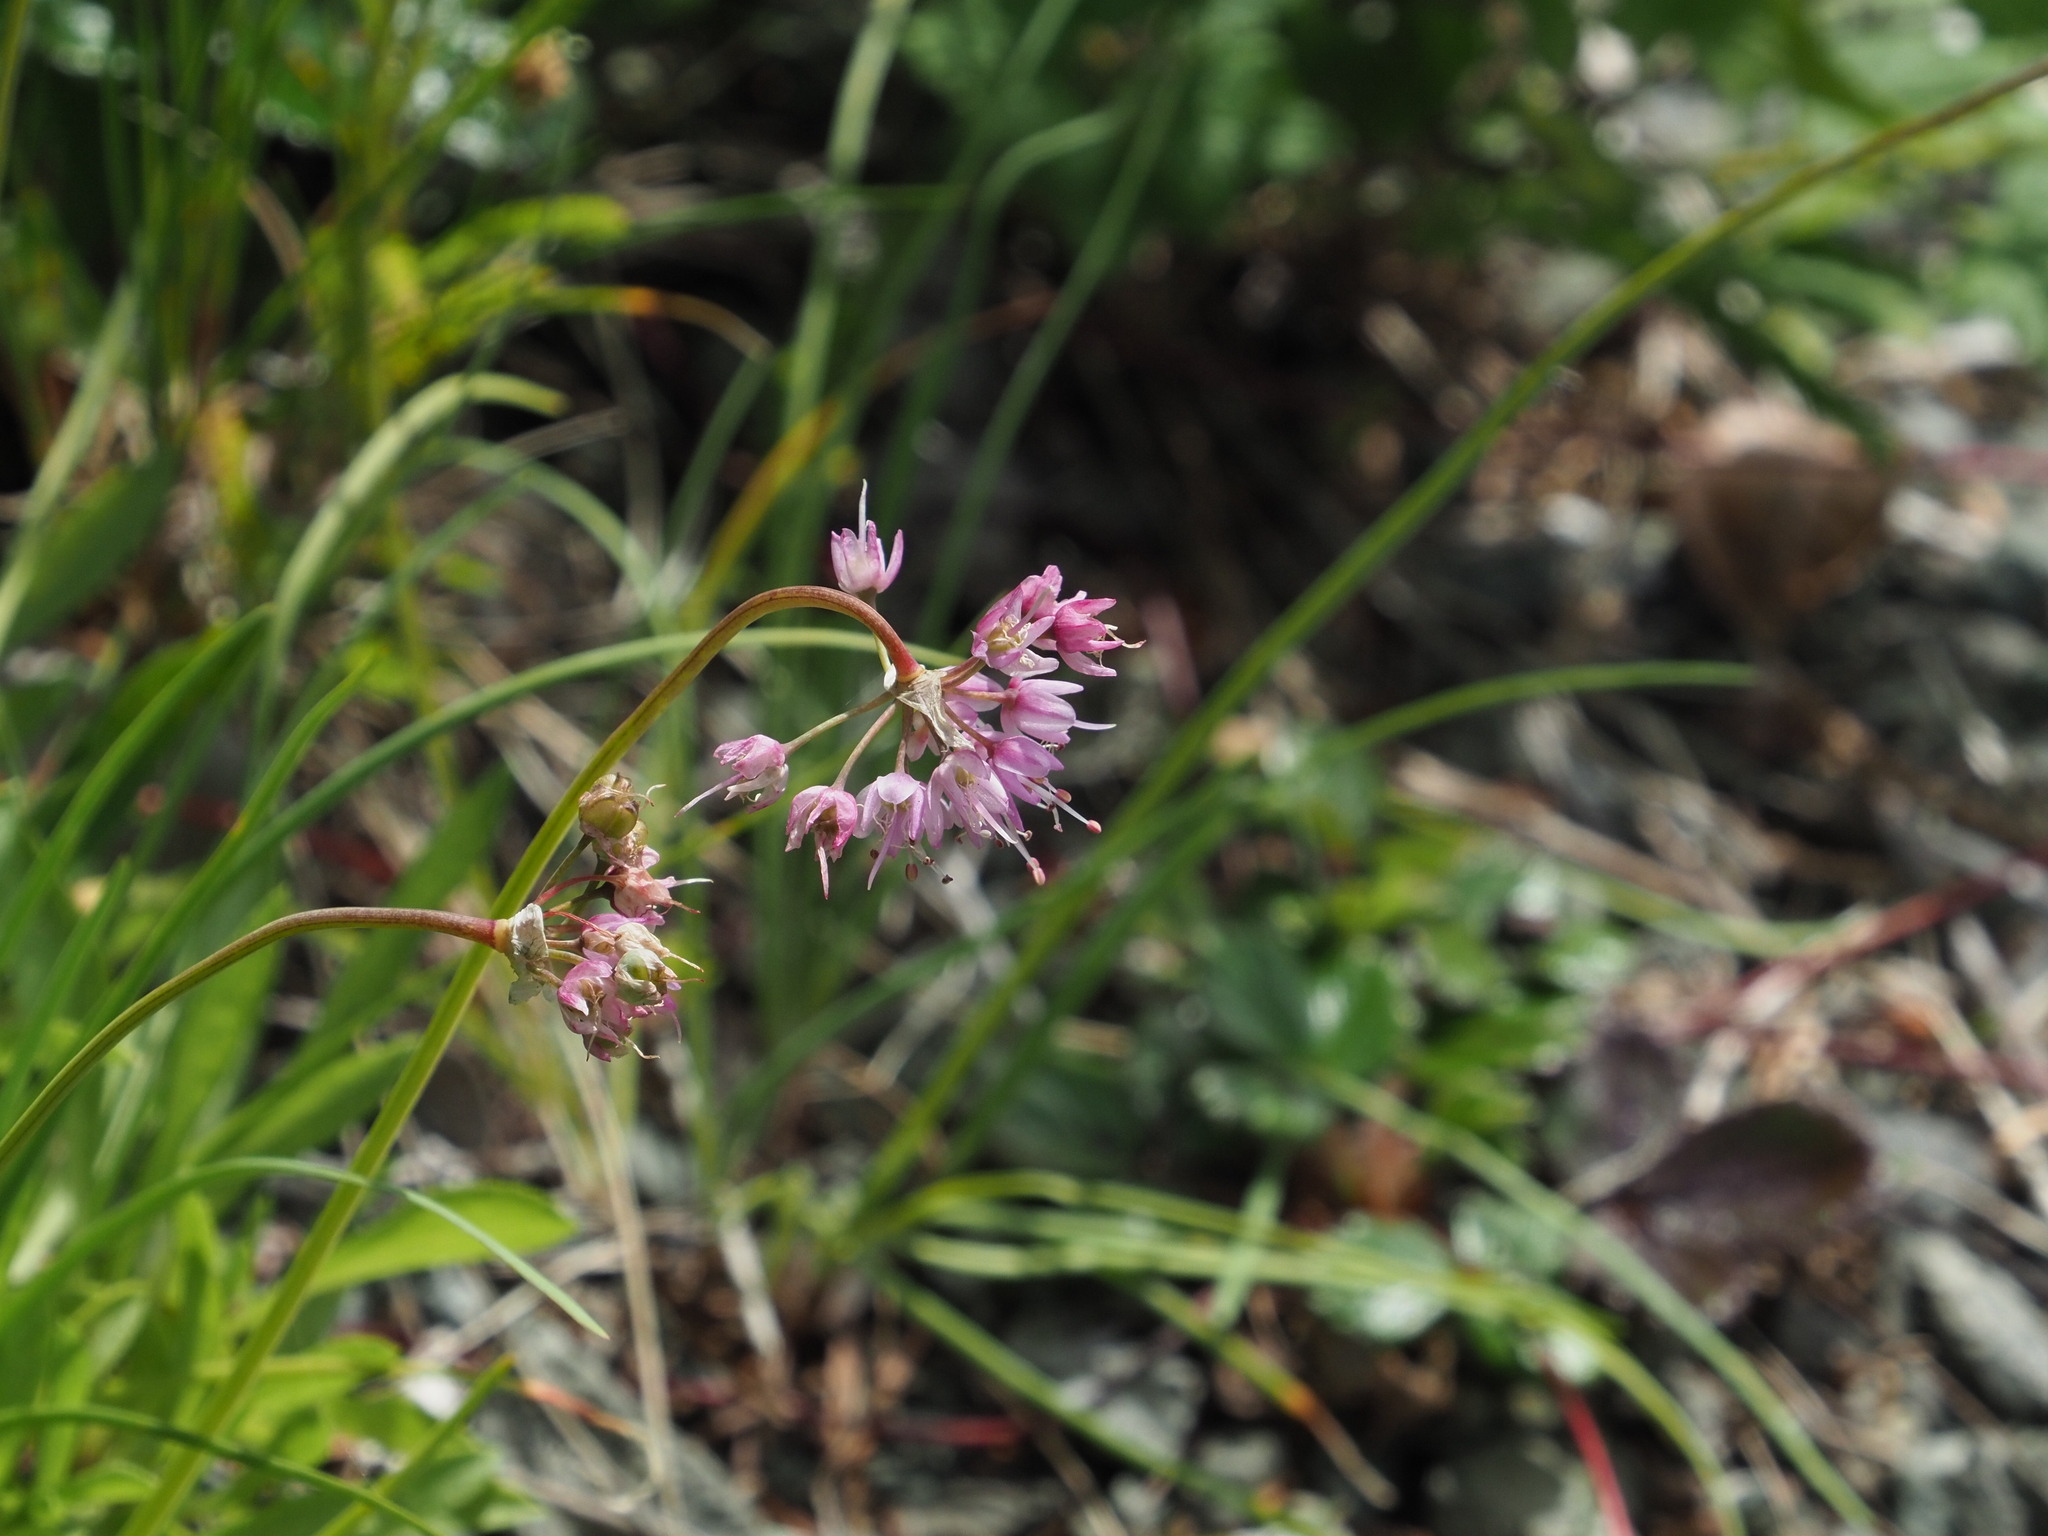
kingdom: Plantae
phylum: Tracheophyta
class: Liliopsida
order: Asparagales
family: Amaryllidaceae
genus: Allium
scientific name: Allium cernuum
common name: Nodding onion
